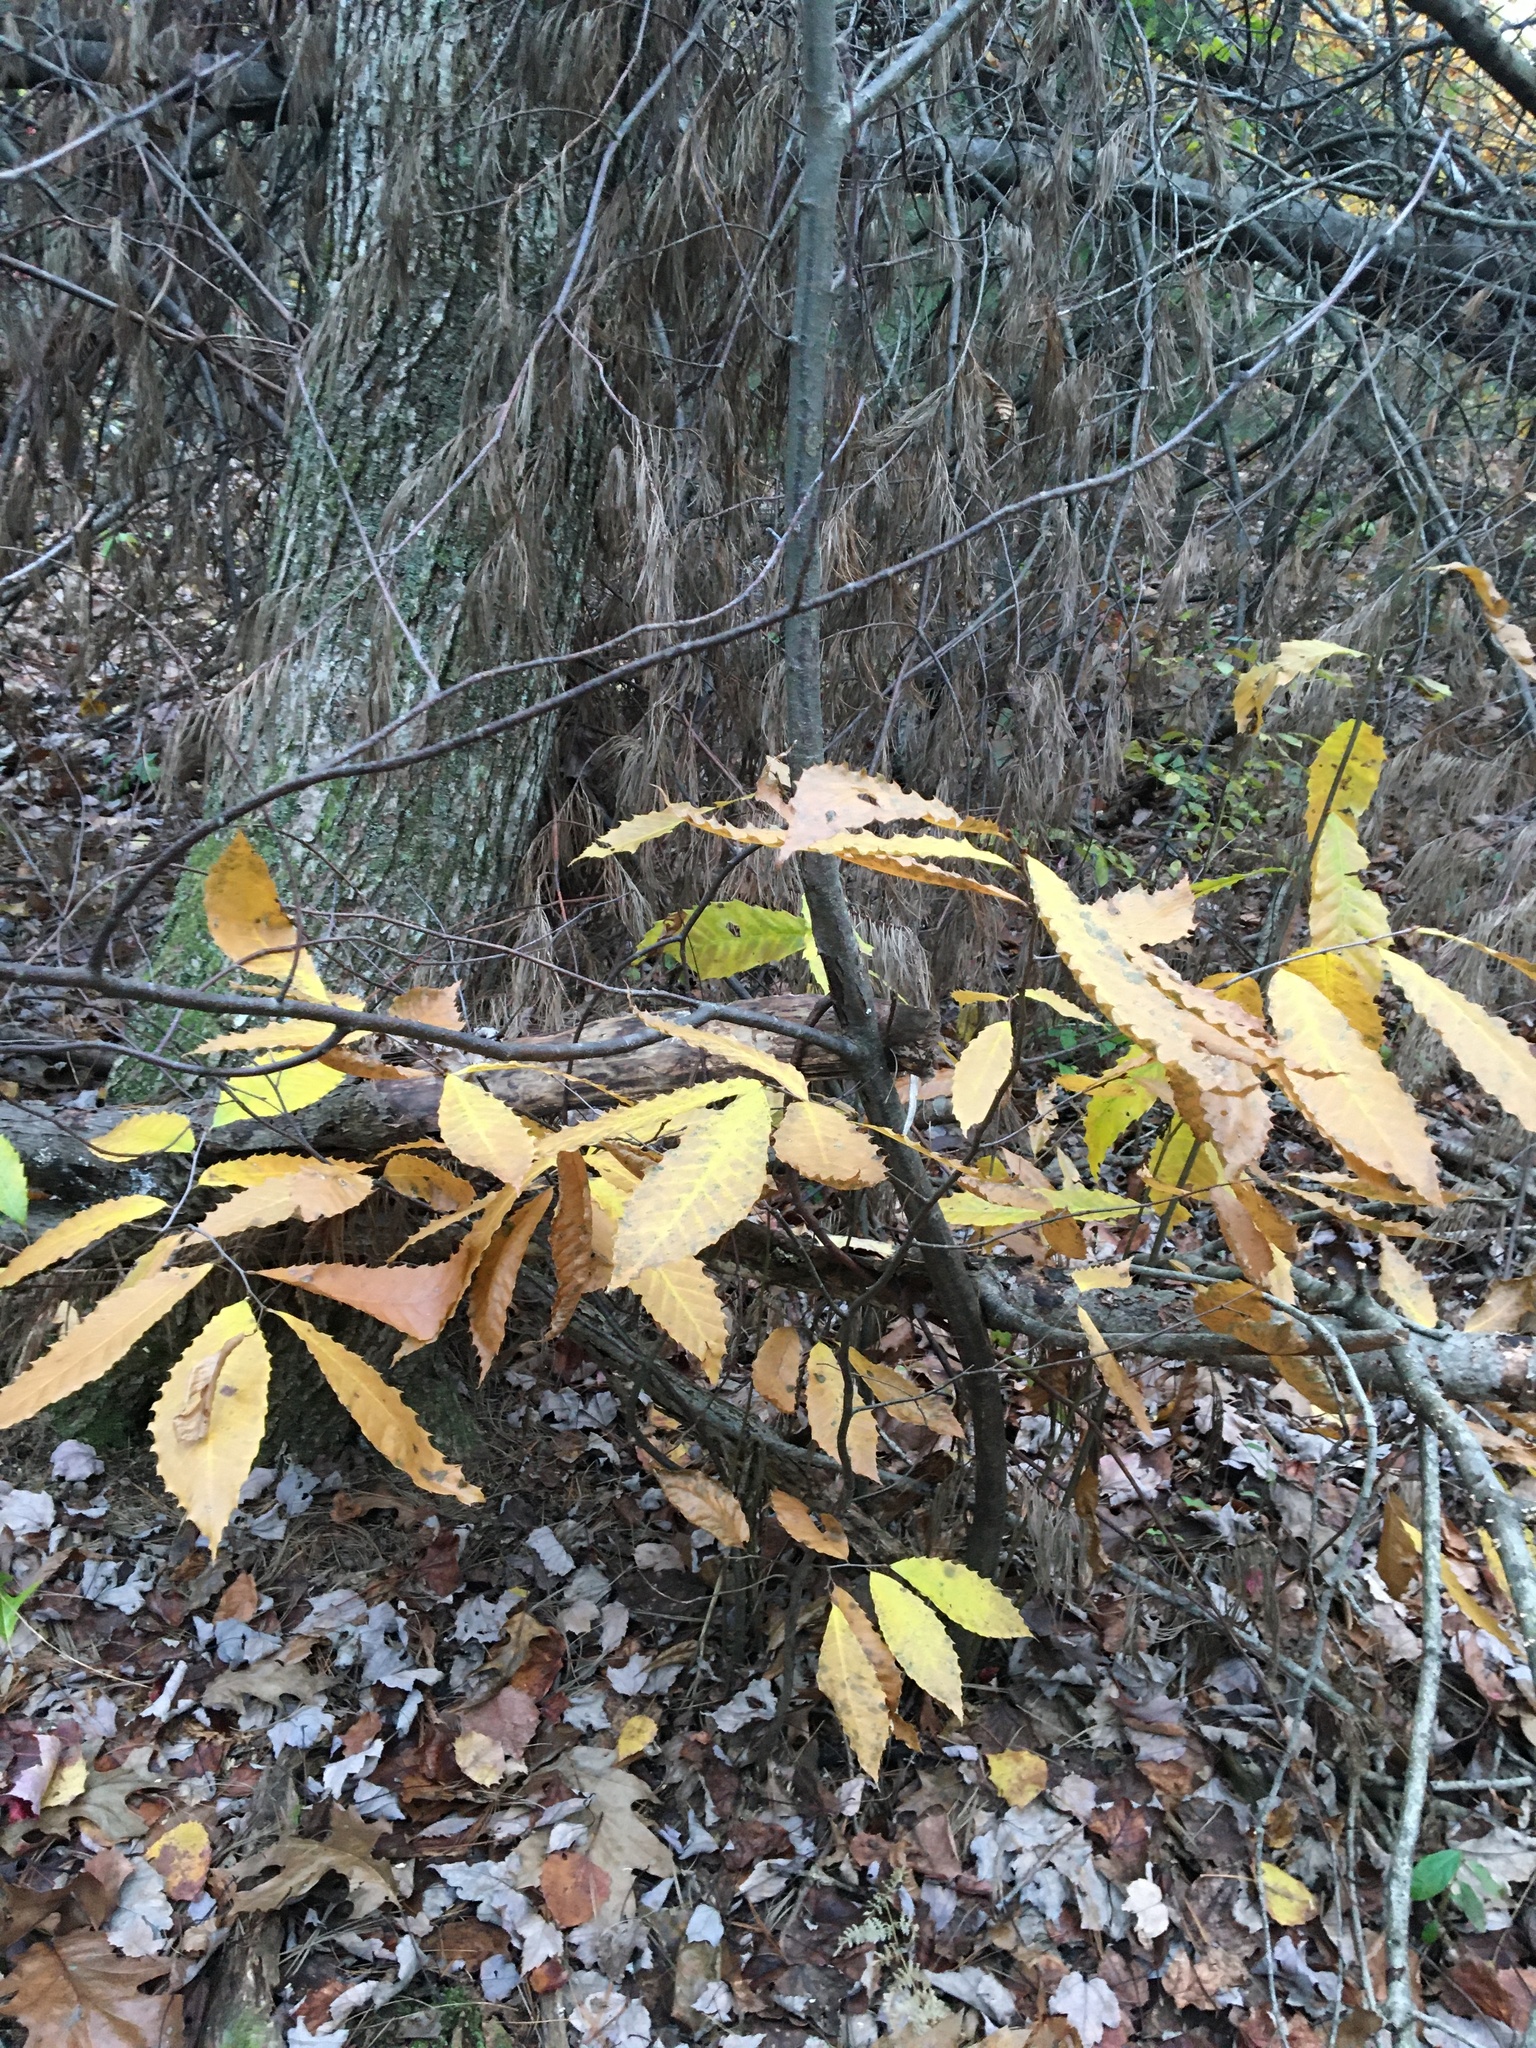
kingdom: Plantae
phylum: Tracheophyta
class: Magnoliopsida
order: Fagales
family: Fagaceae
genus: Castanea
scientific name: Castanea dentata
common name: American chestnut
